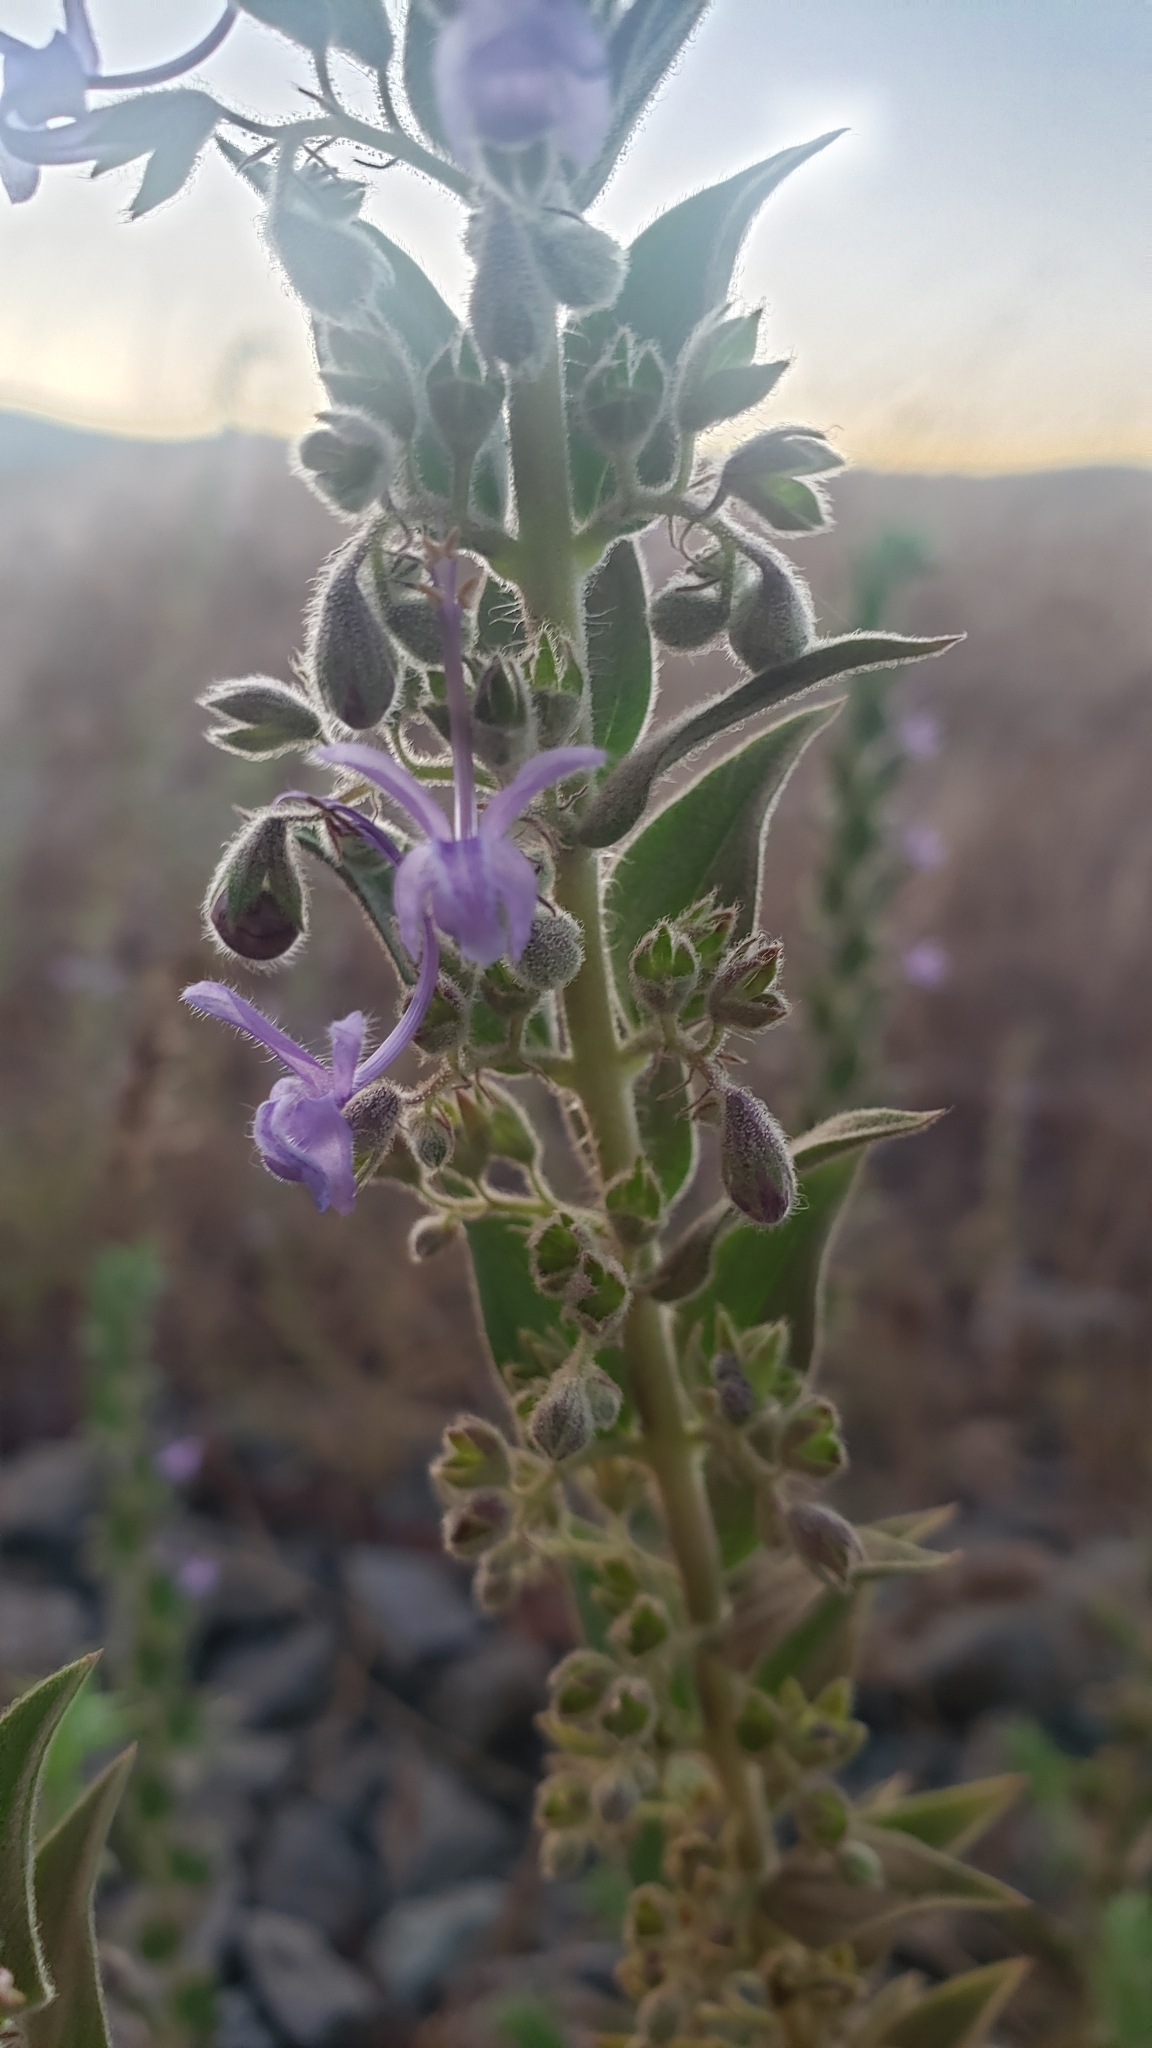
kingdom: Plantae
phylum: Tracheophyta
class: Magnoliopsida
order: Lamiales
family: Lamiaceae
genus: Trichostema
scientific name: Trichostema lanceolatum
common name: Vinegar-weed
